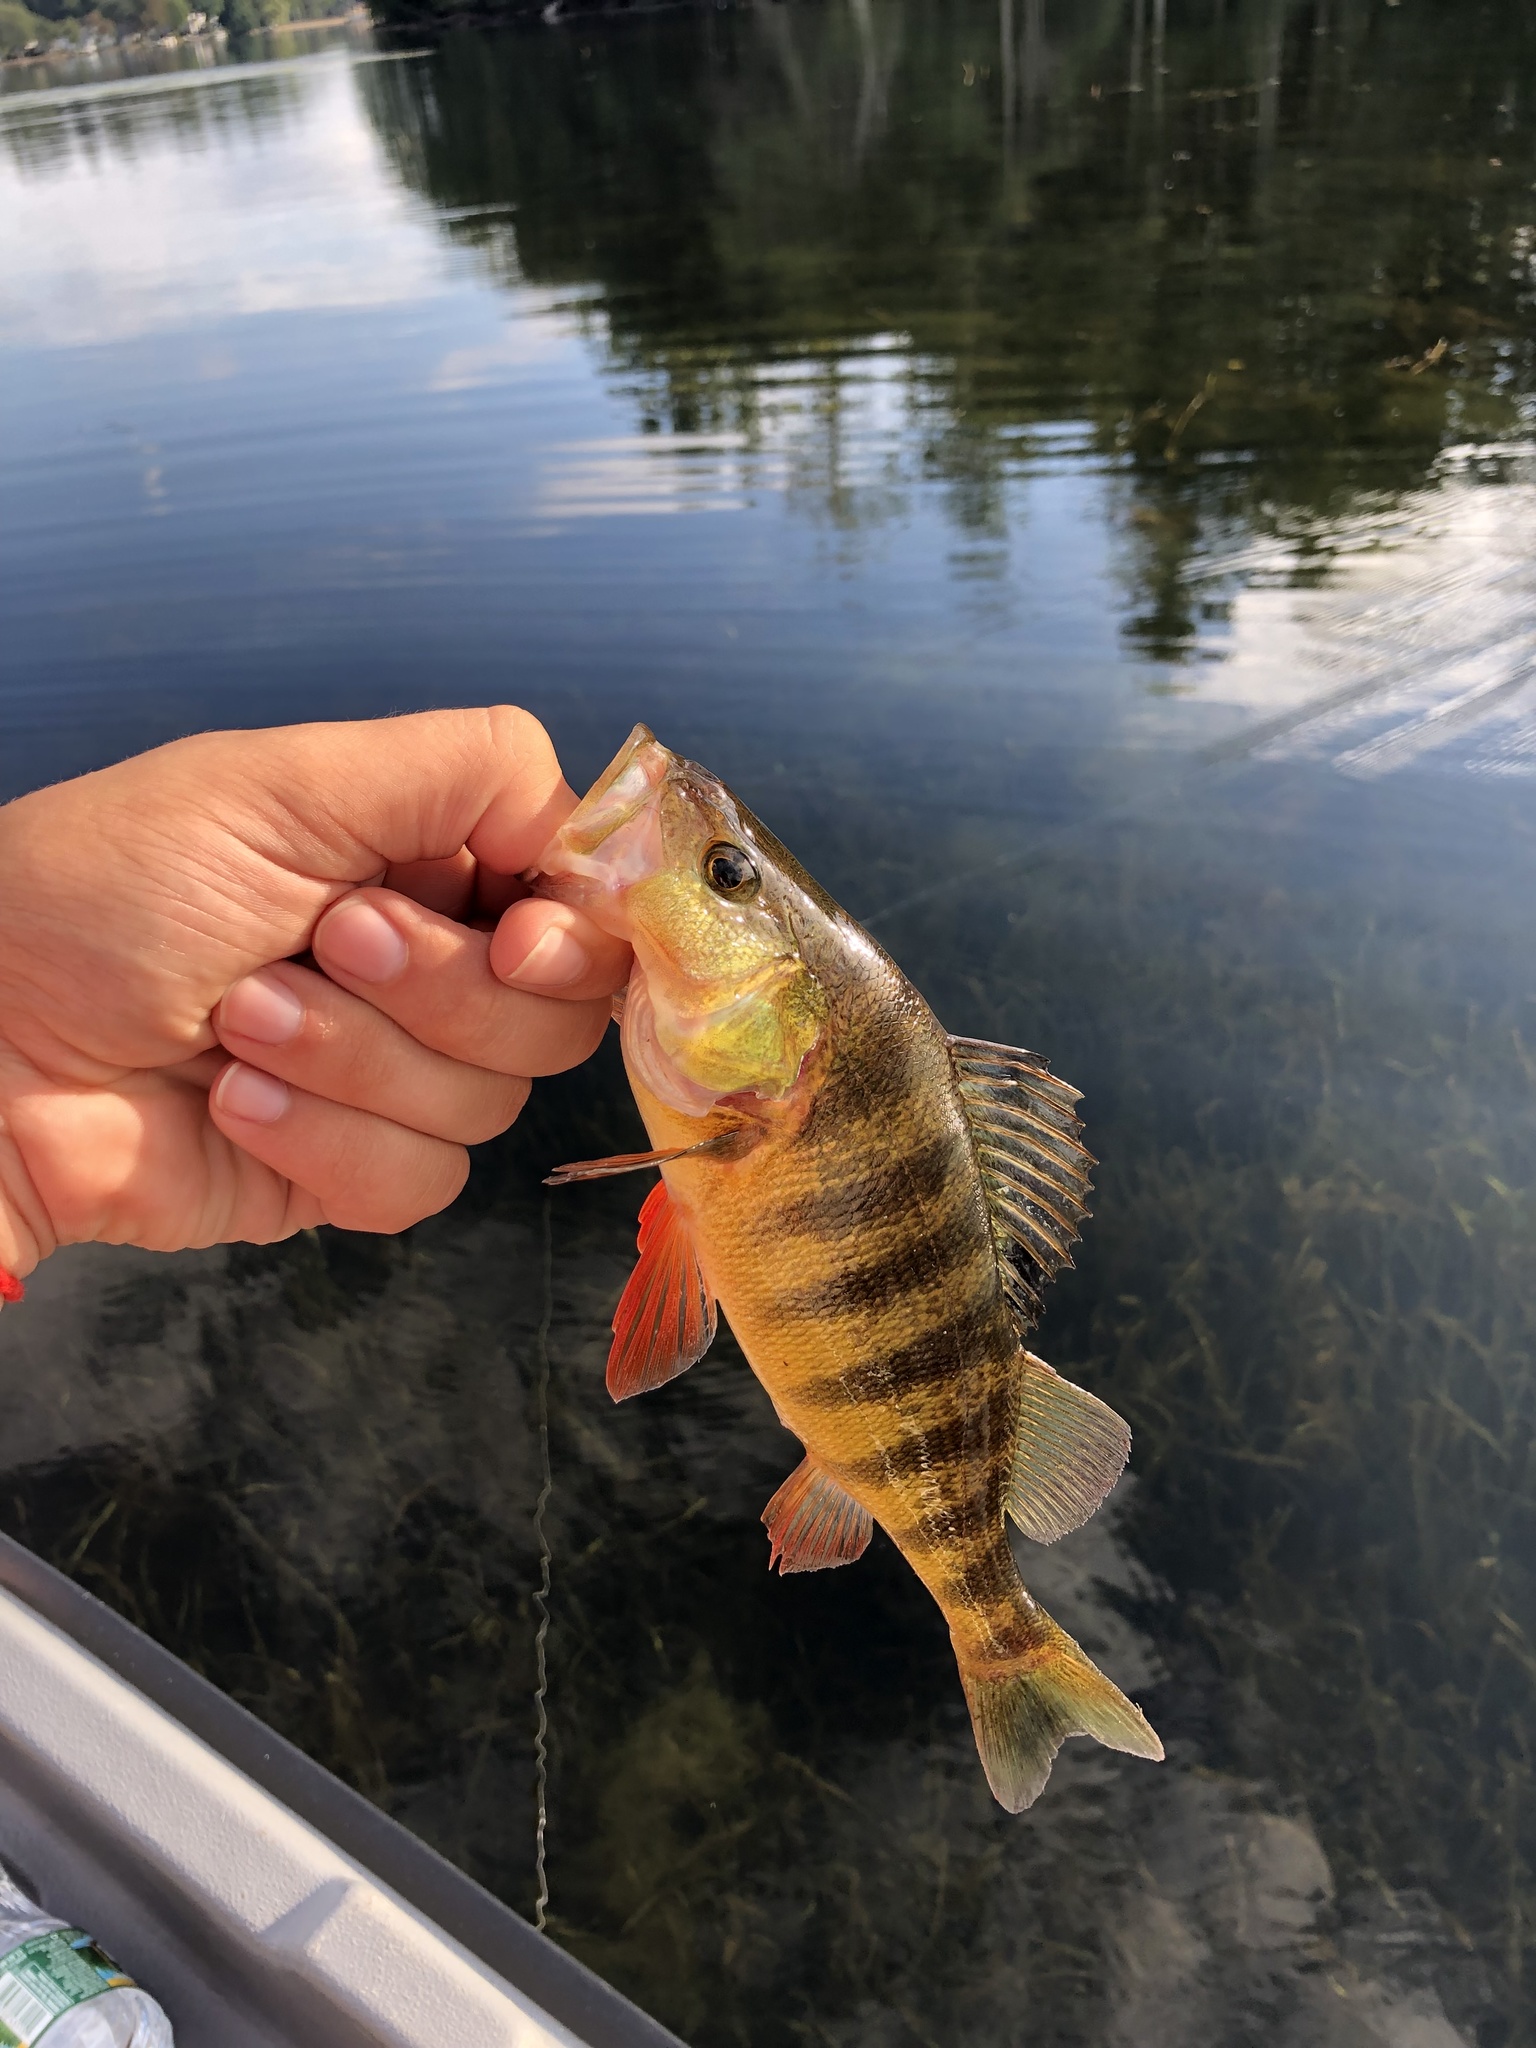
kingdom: Animalia
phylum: Chordata
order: Perciformes
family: Percidae
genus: Perca
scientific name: Perca flavescens
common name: Yellow perch
